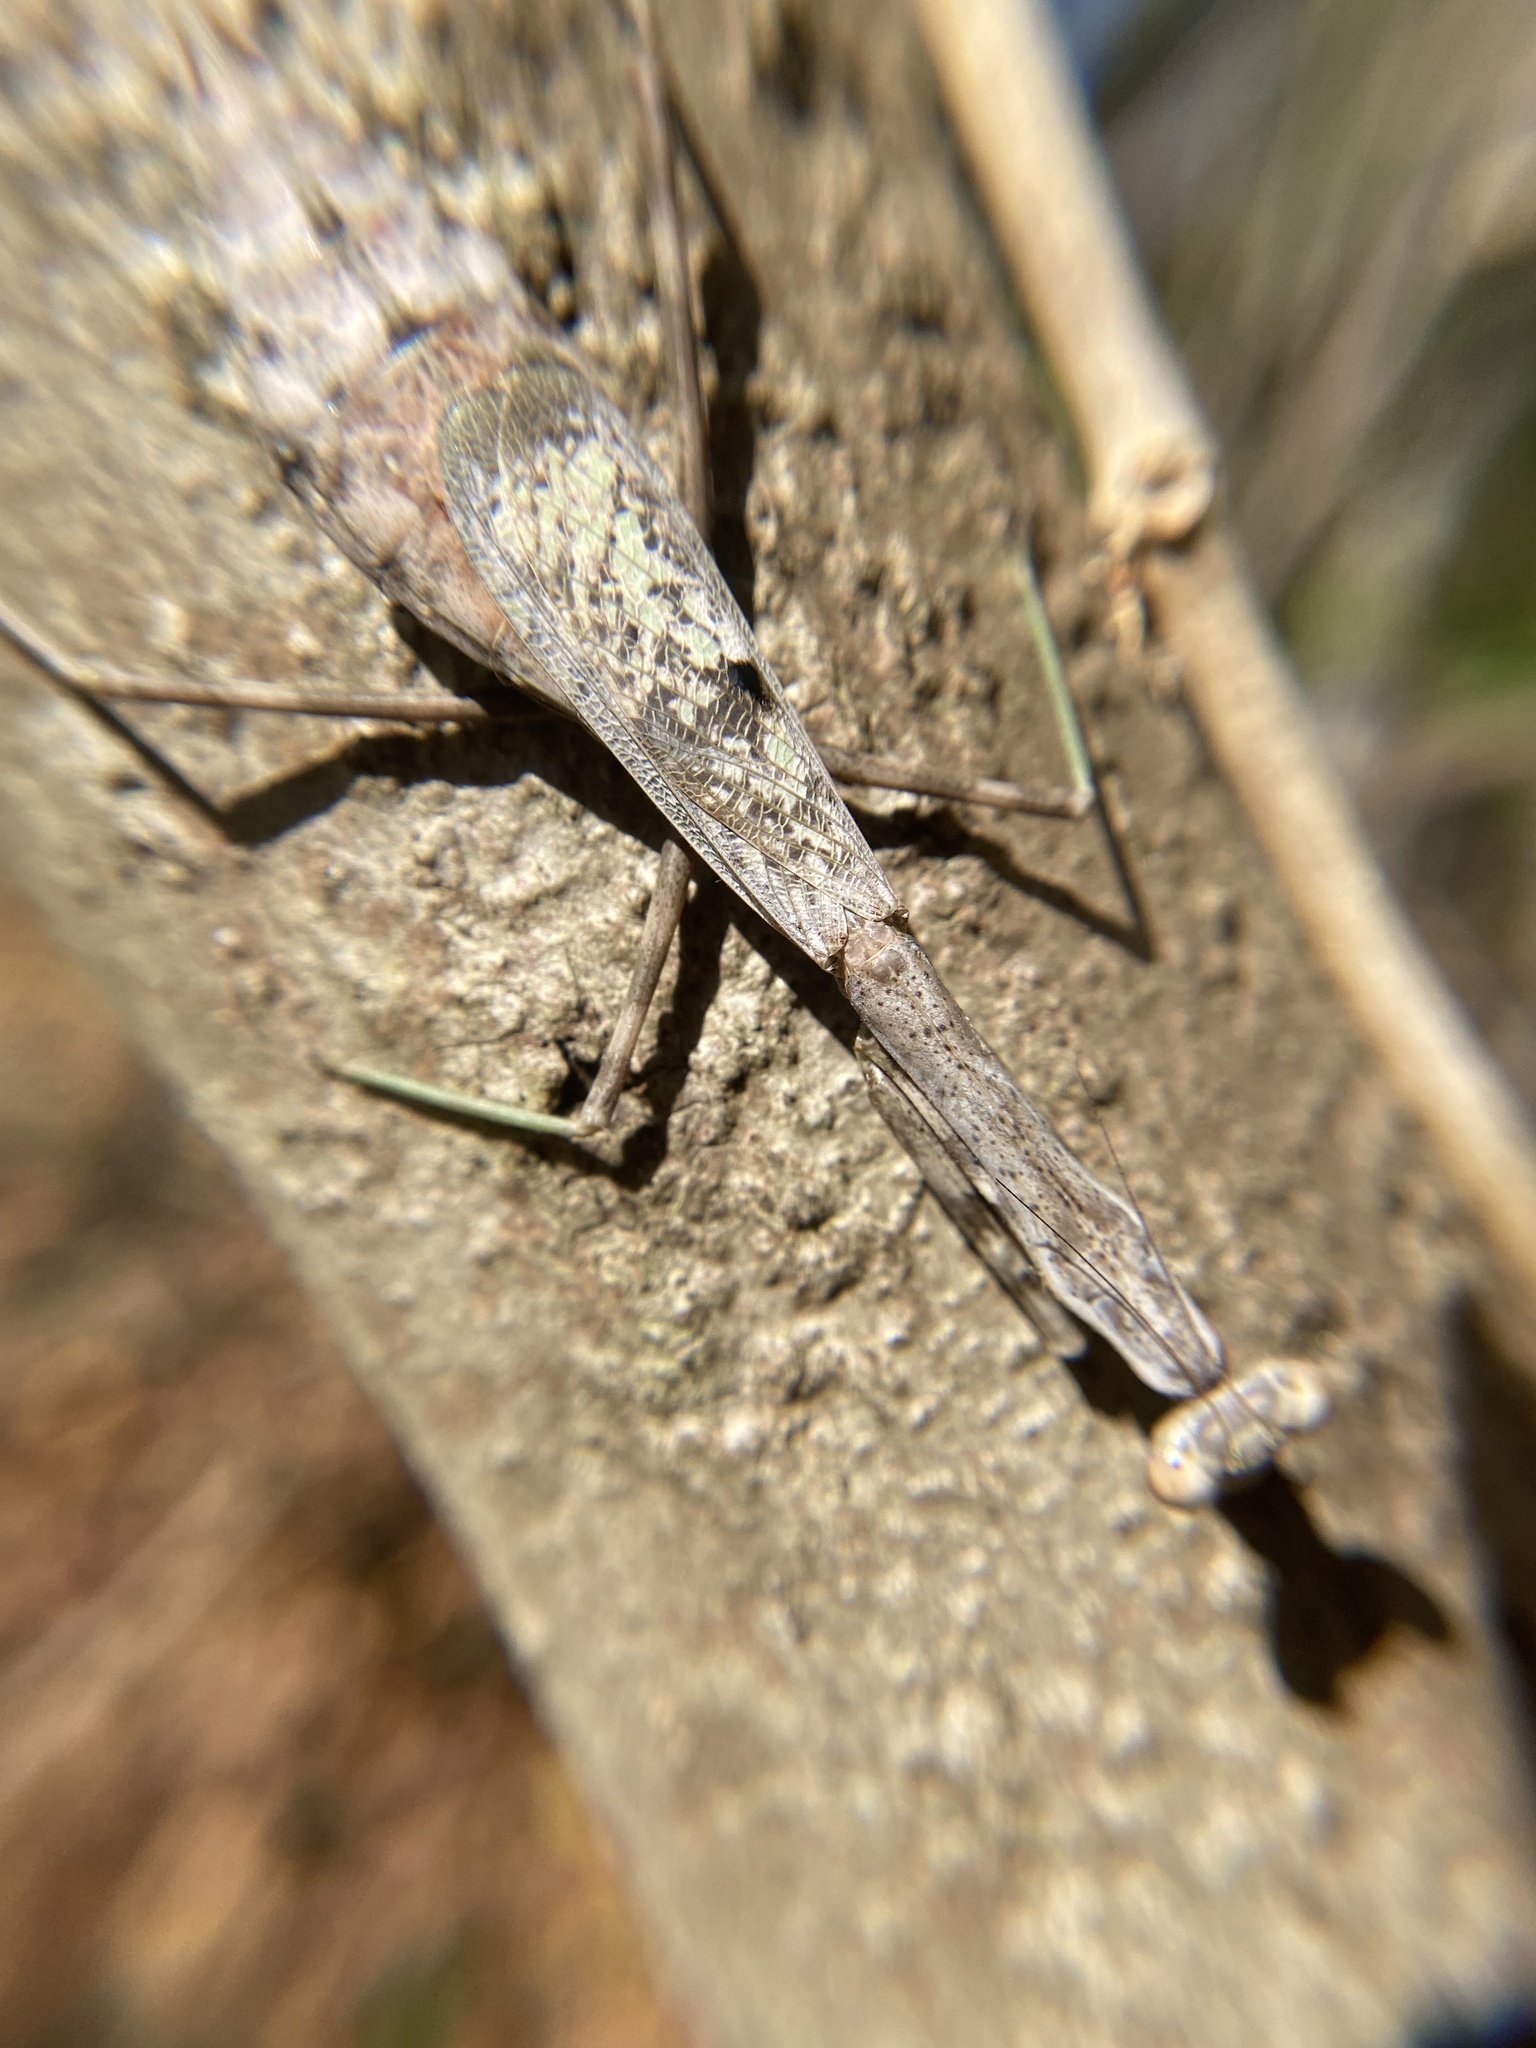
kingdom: Animalia
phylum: Arthropoda
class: Insecta
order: Mantodea
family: Mantidae
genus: Stagmomantis
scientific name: Stagmomantis carolina
